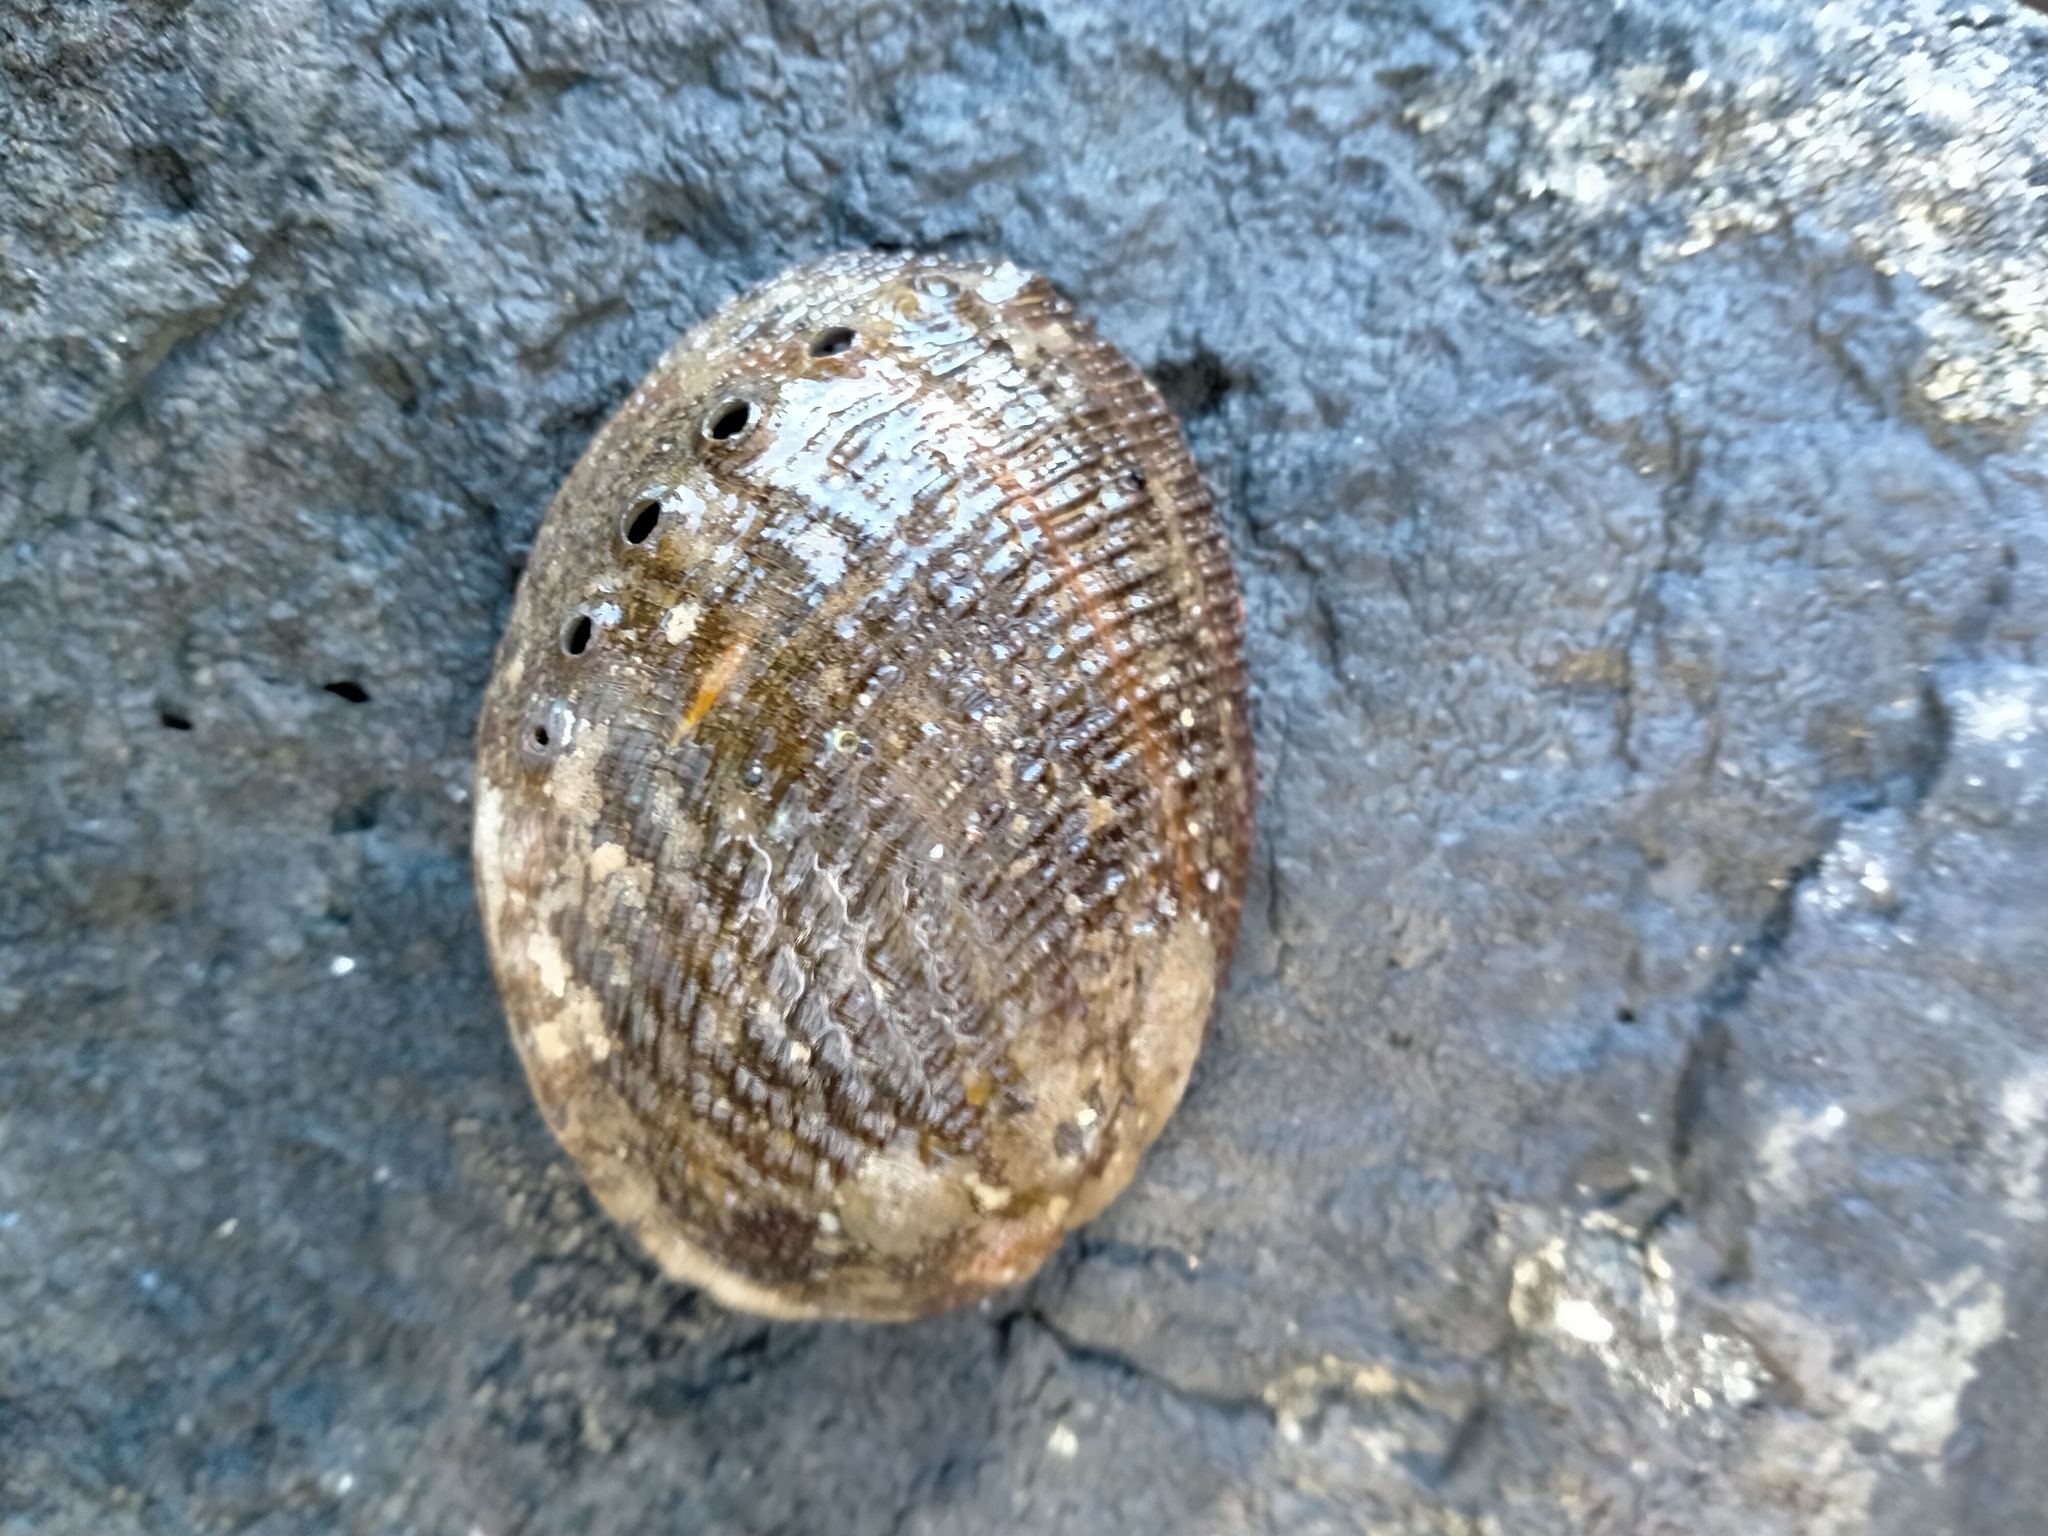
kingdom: Animalia
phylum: Mollusca
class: Gastropoda
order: Lepetellida
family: Haliotidae
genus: Haliotis
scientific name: Haliotis virginea
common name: Whitefoot paua
